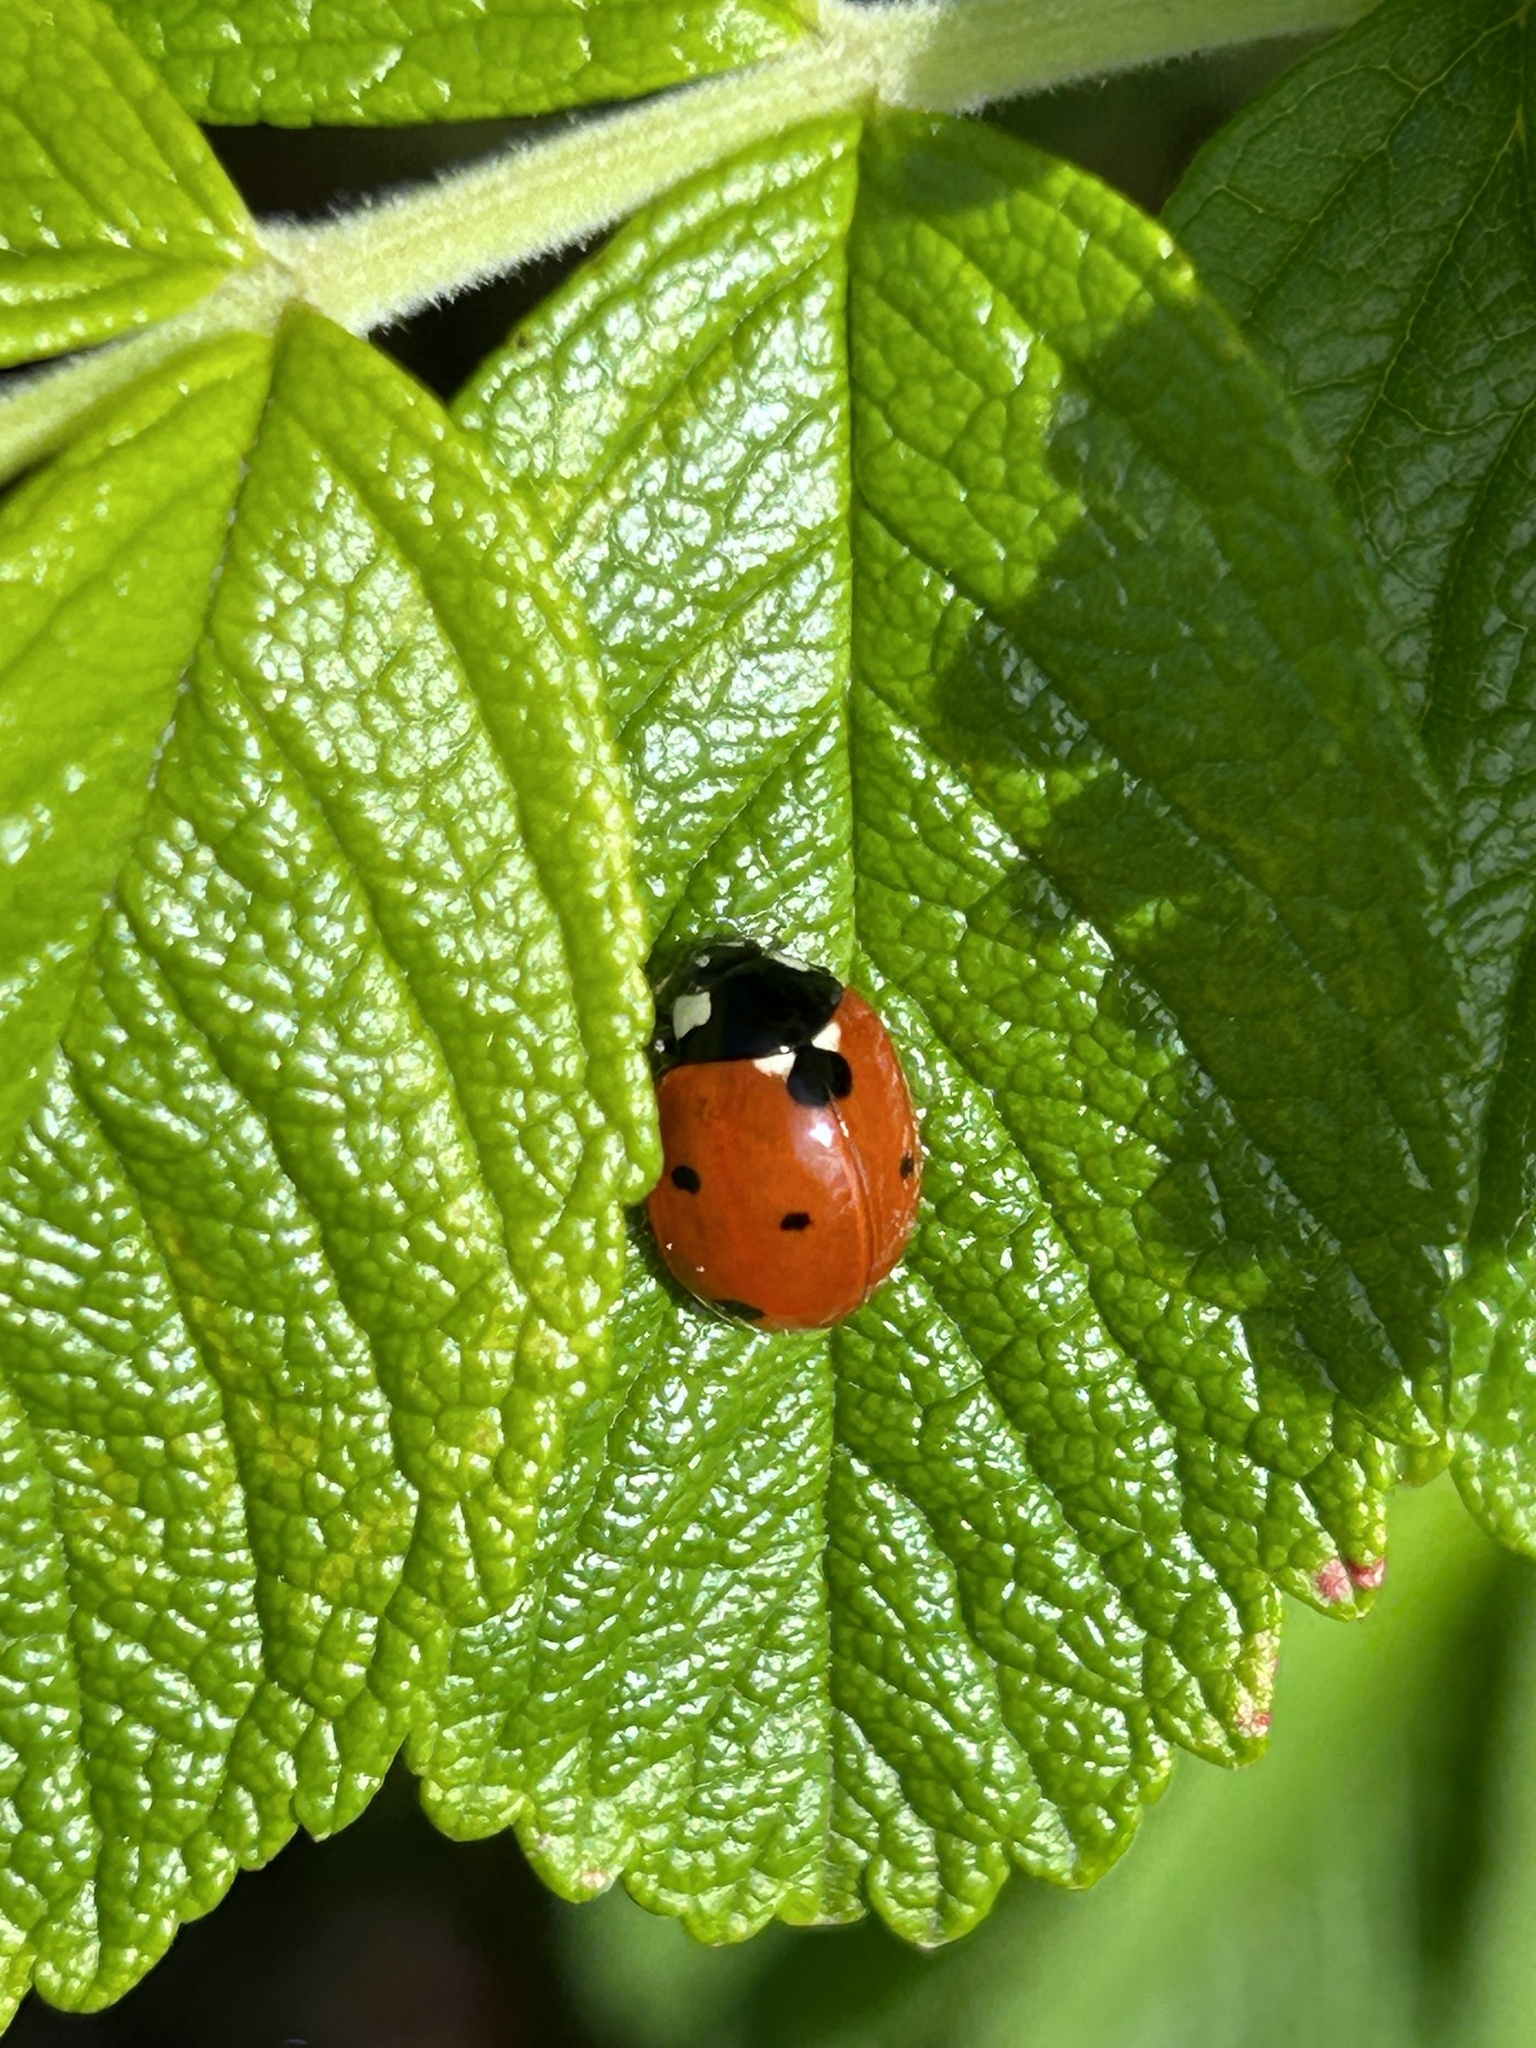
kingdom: Animalia
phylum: Arthropoda
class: Insecta
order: Coleoptera
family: Coccinellidae
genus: Coccinella
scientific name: Coccinella septempunctata
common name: Sevenspotted lady beetle
